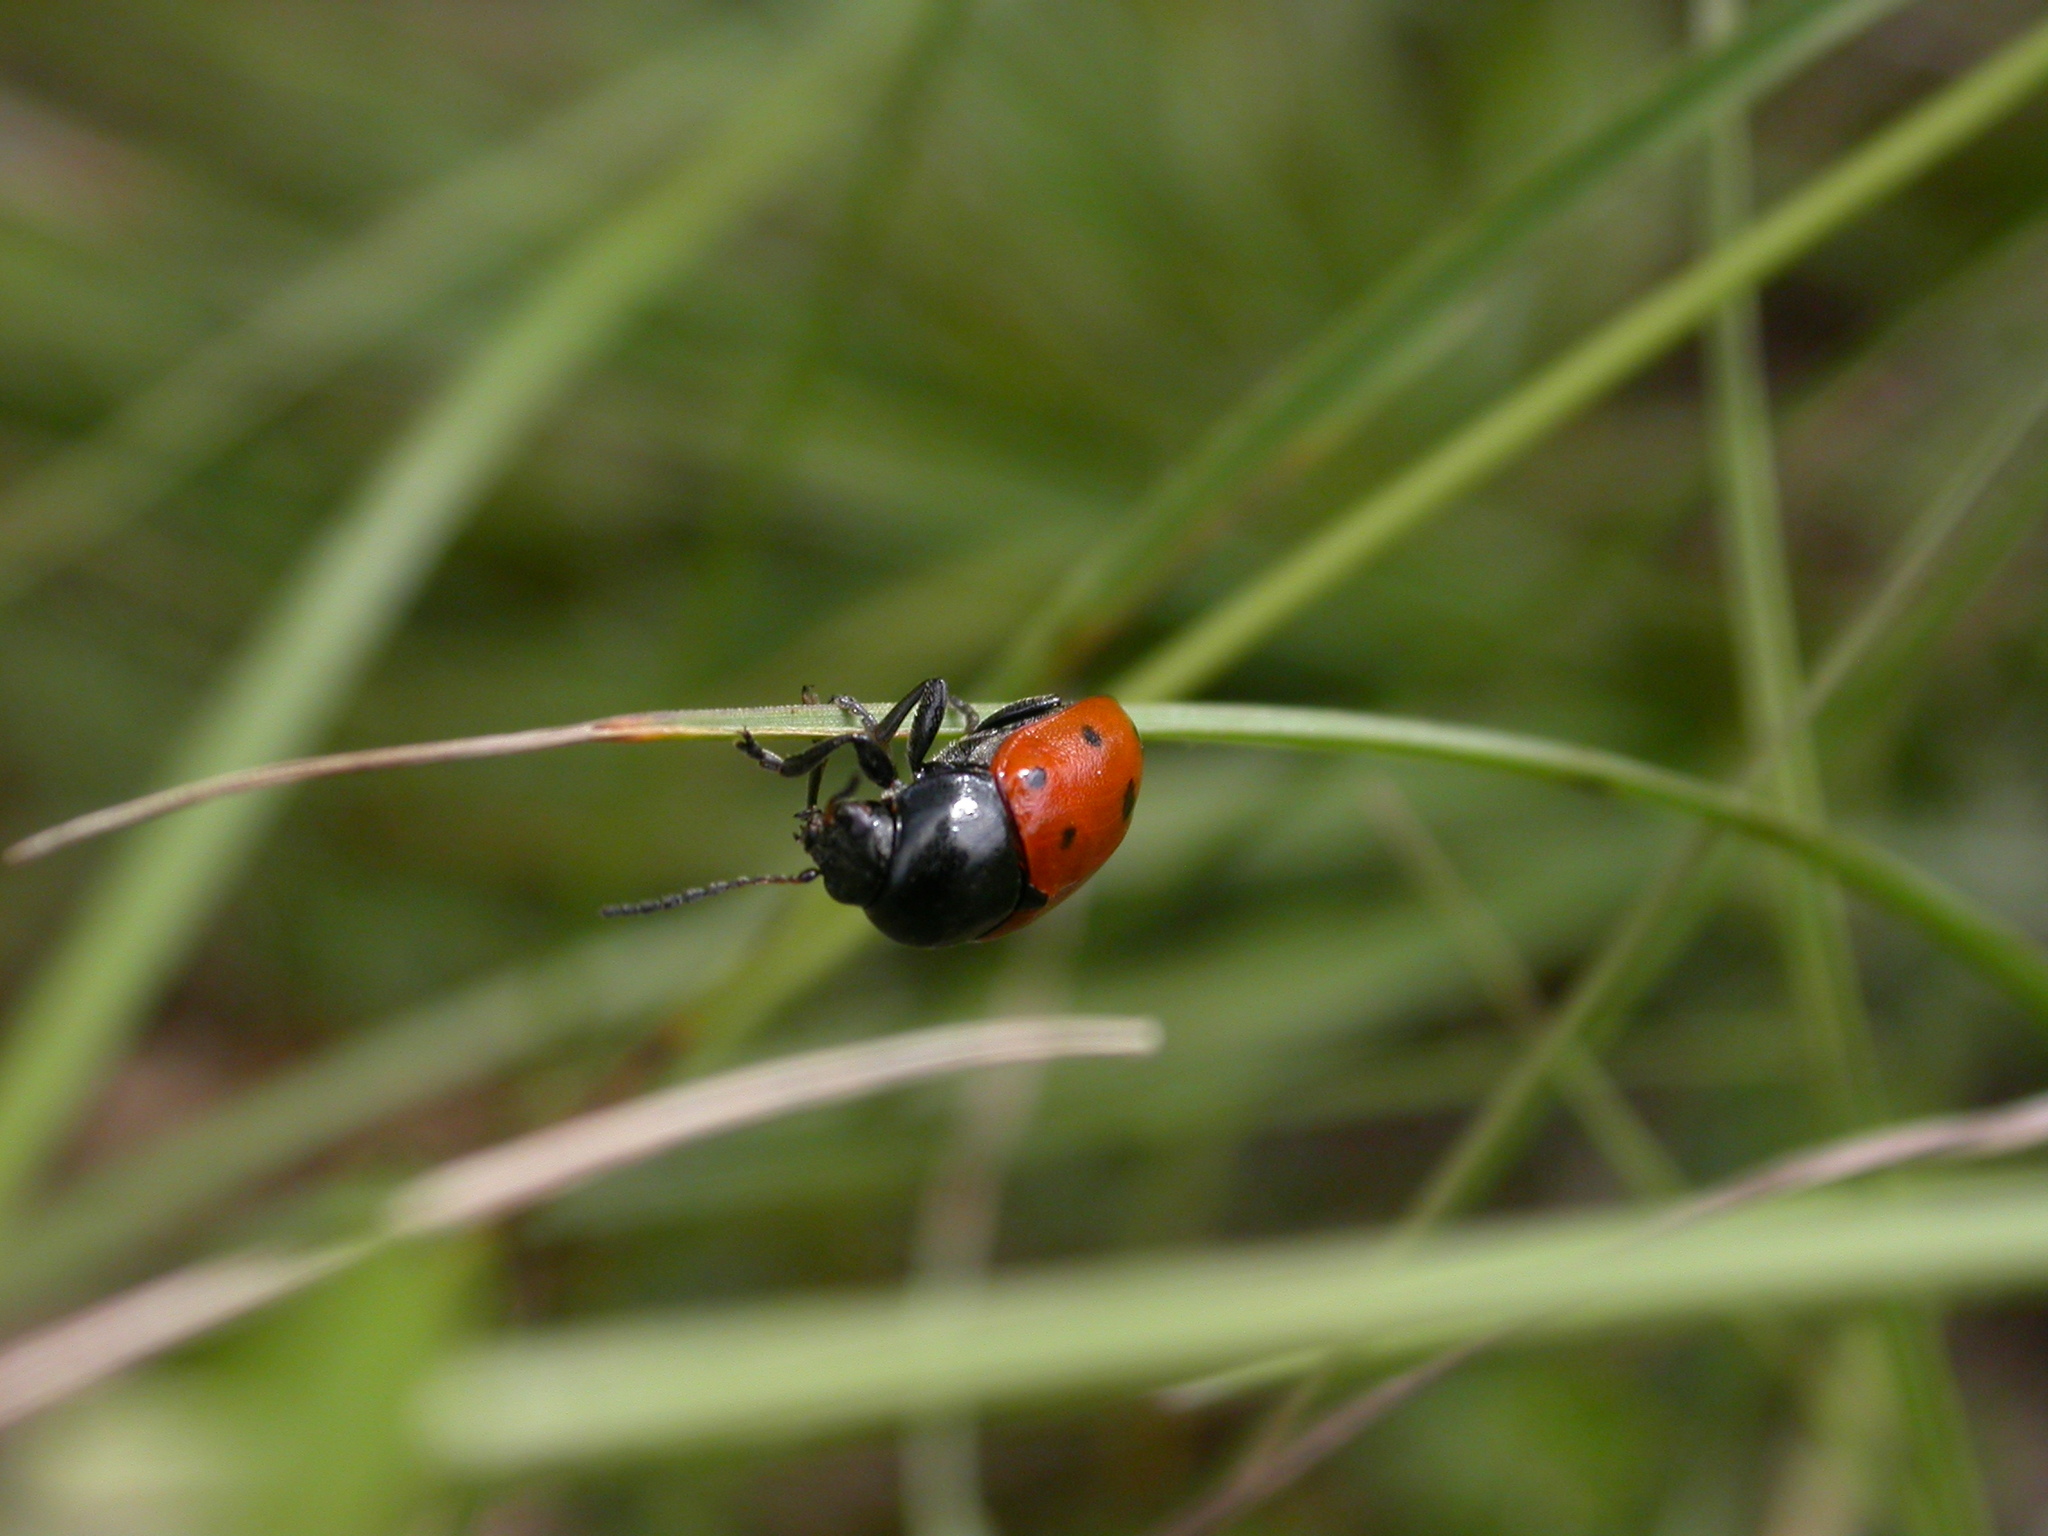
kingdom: Animalia
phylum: Arthropoda
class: Insecta
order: Coleoptera
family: Chrysomelidae
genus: Cryptocephalus
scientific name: Cryptocephalus primarius
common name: Rock-rose pot beetle
